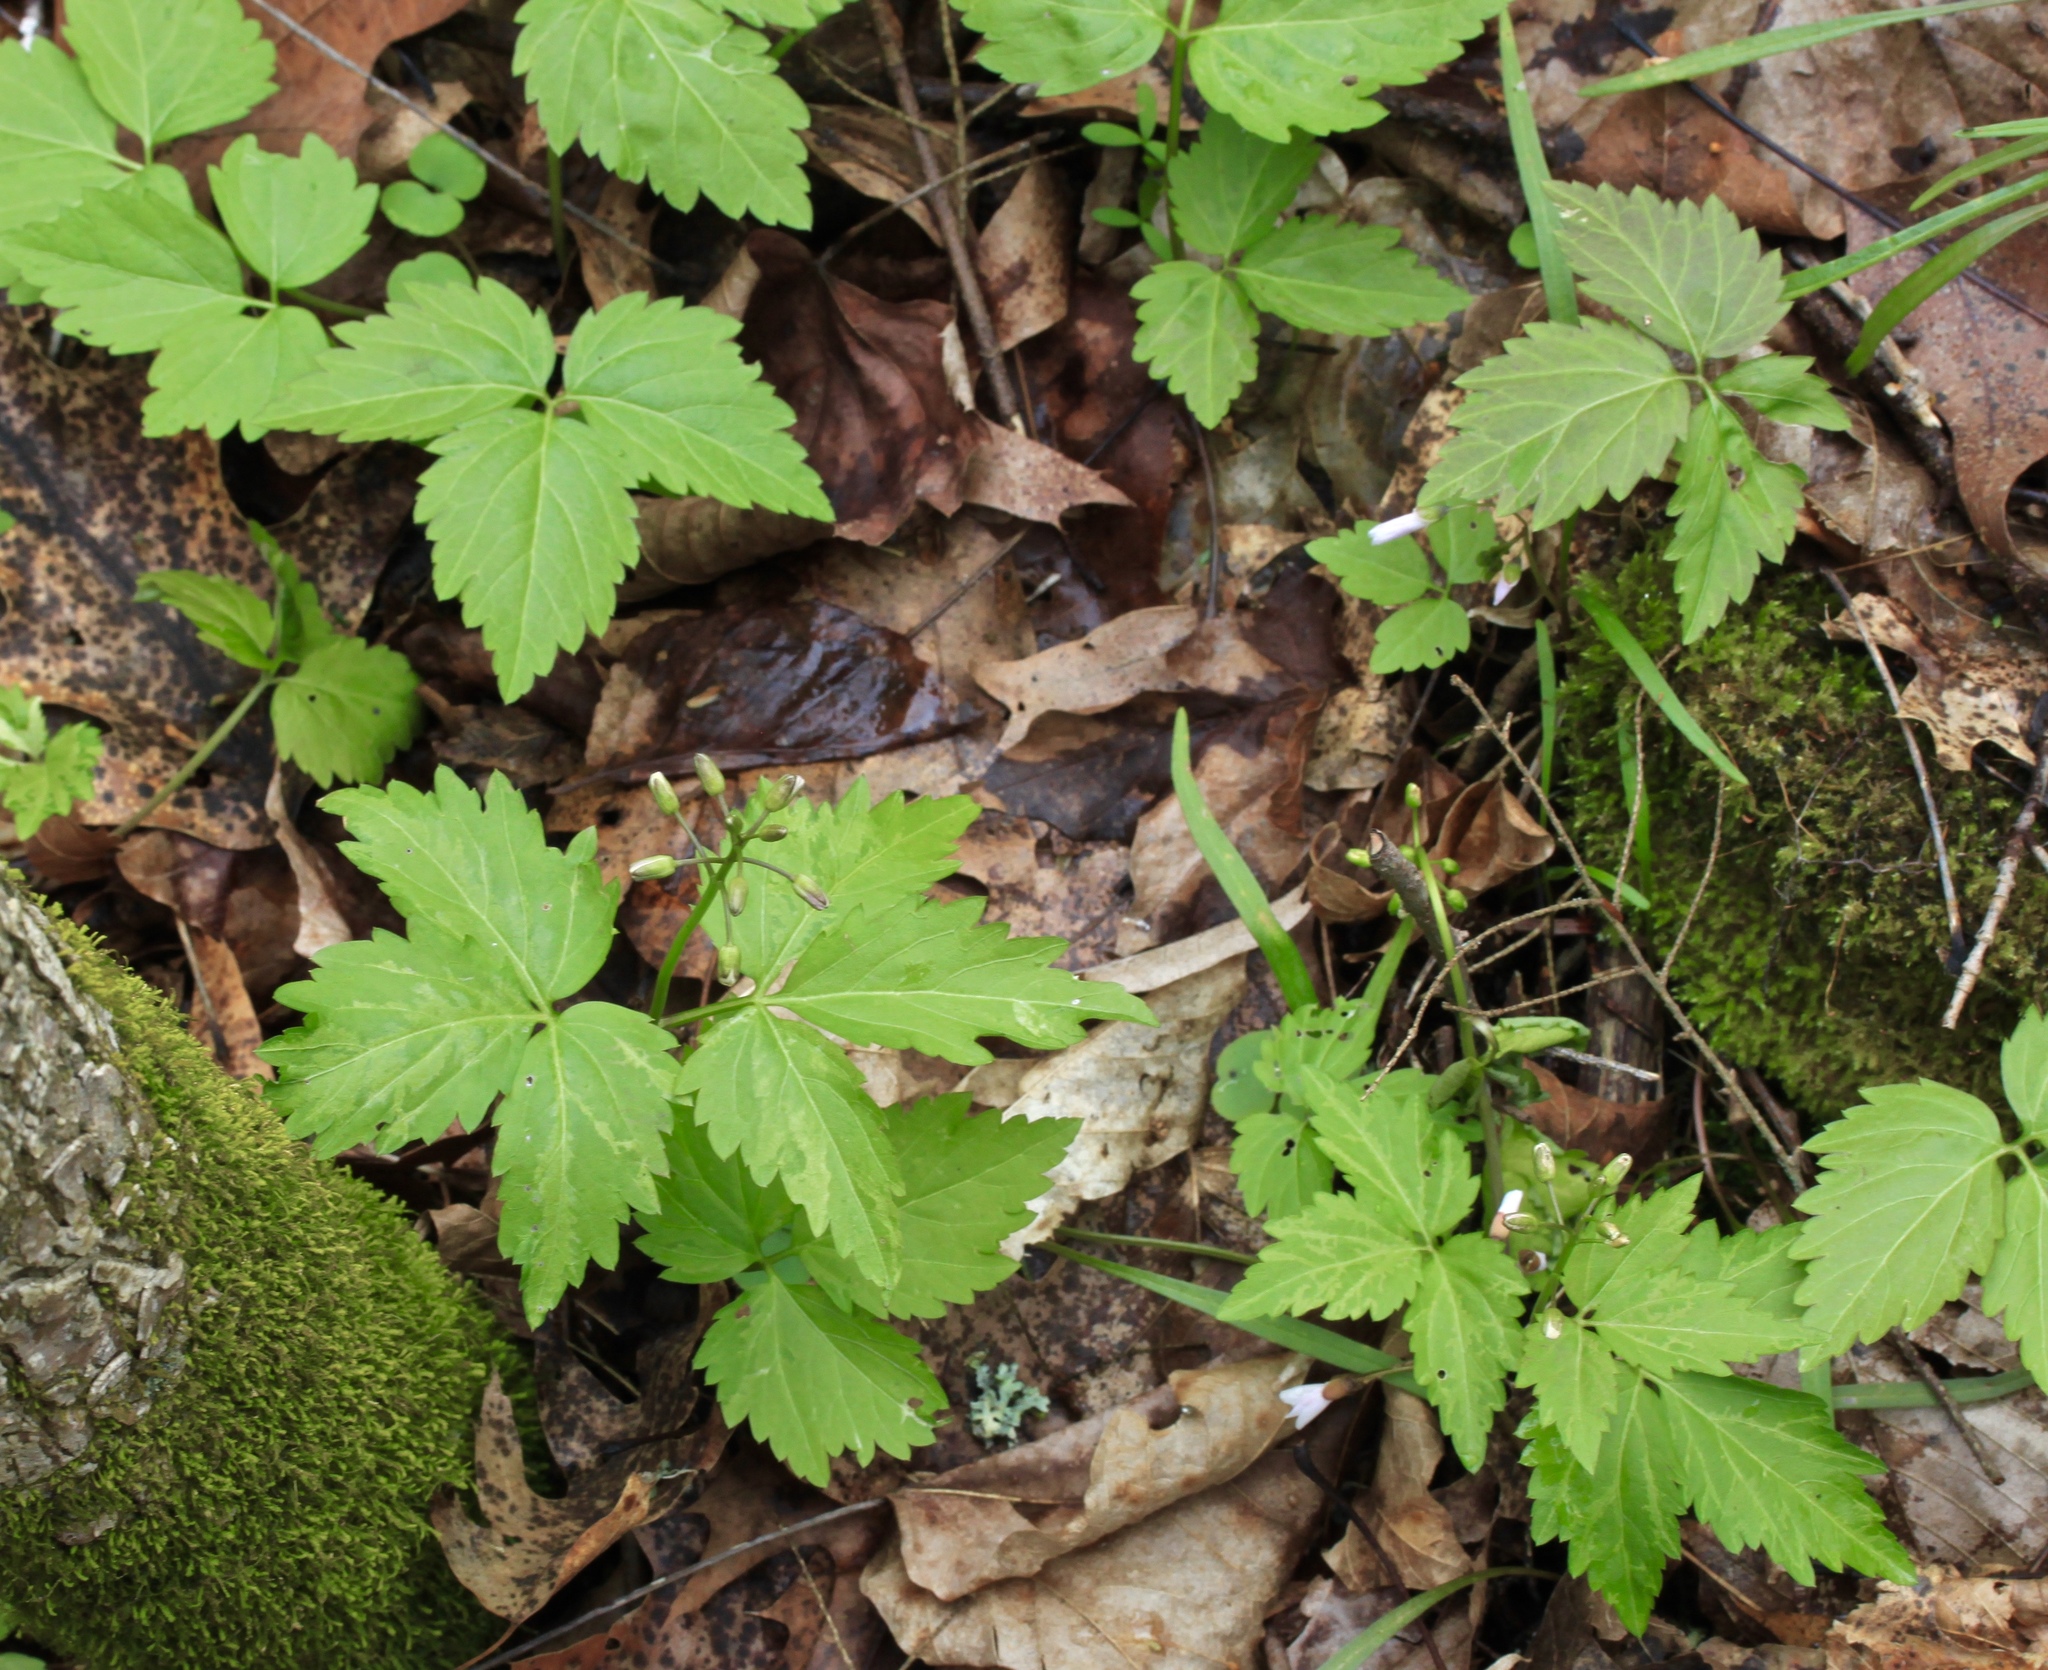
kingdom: Plantae
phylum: Tracheophyta
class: Magnoliopsida
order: Brassicales
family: Brassicaceae
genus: Cardamine
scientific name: Cardamine diphylla
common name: Broad-leaved toothwort
